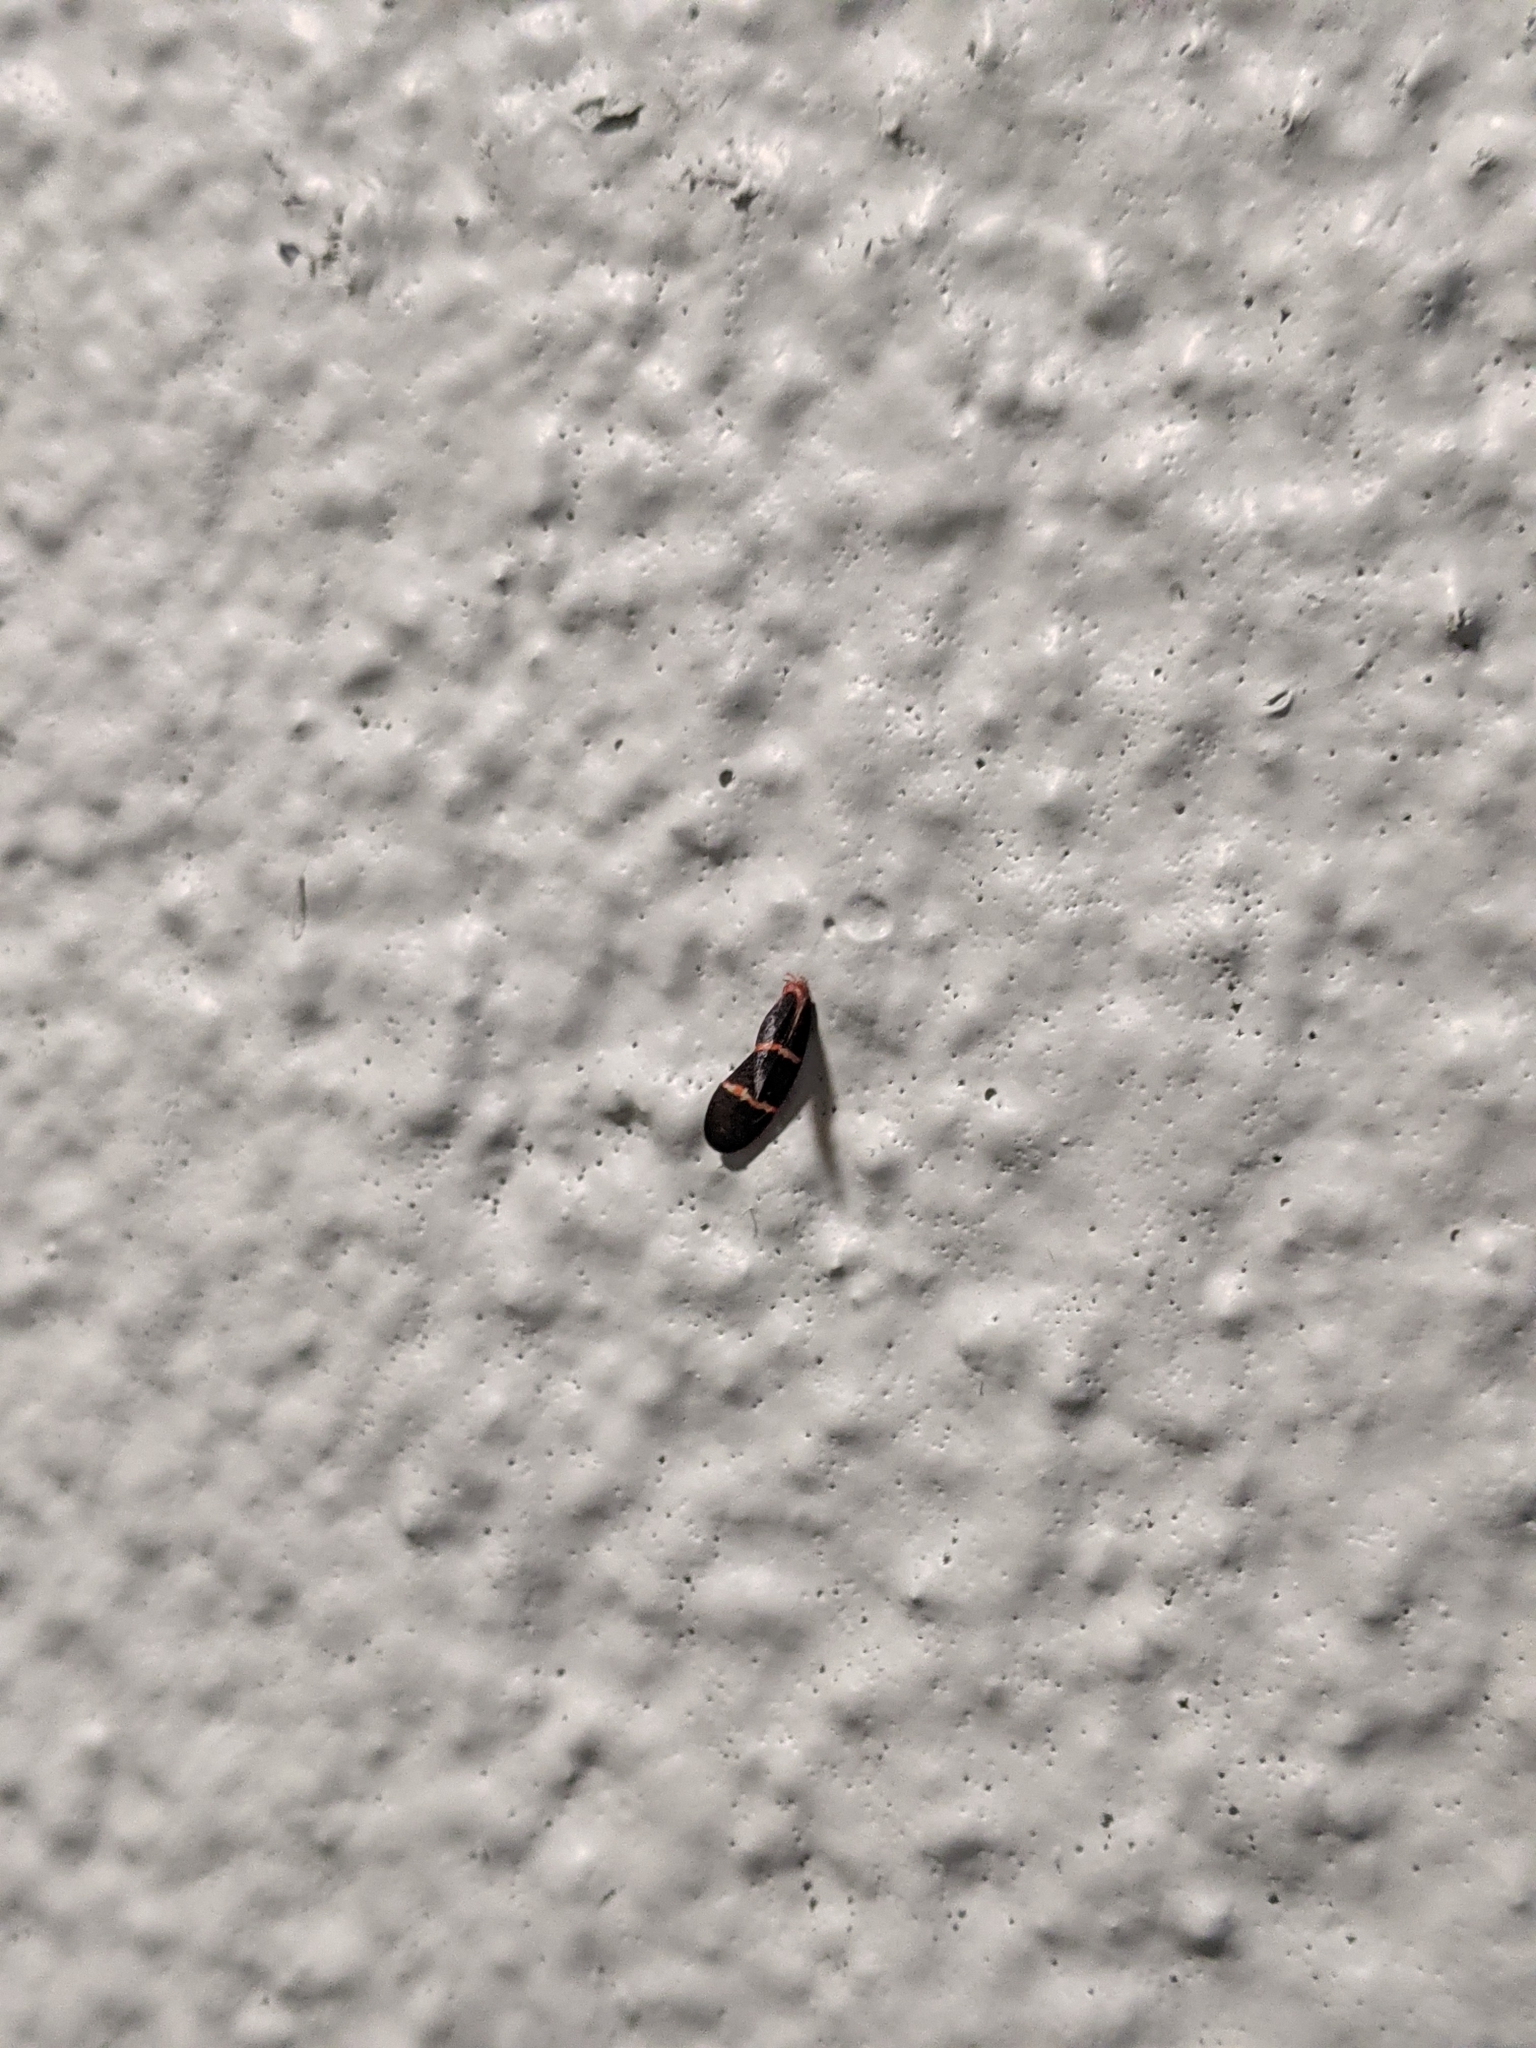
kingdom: Animalia
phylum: Arthropoda
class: Insecta
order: Hemiptera
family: Cercopidae
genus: Prosapia
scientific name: Prosapia bicincta
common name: Twolined spittlebug
